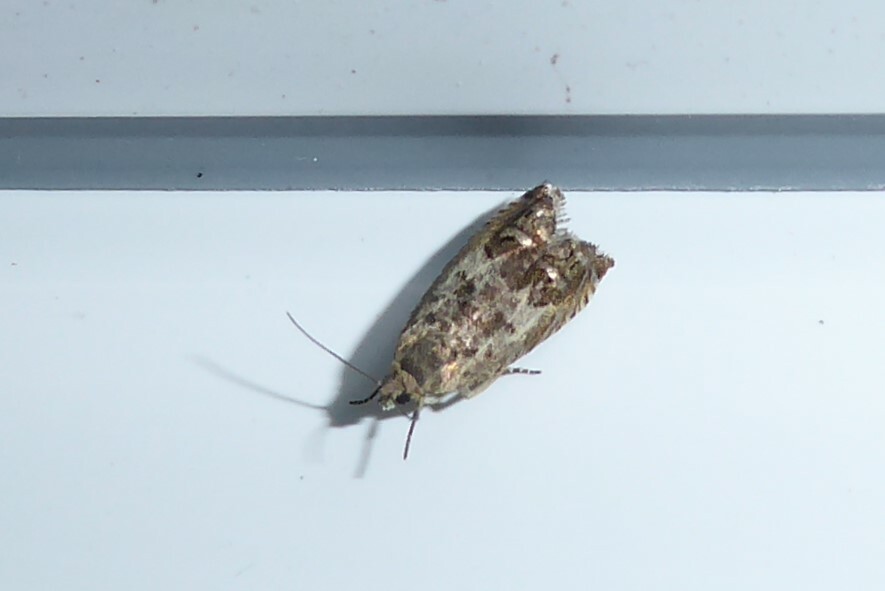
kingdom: Animalia
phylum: Arthropoda
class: Insecta
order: Lepidoptera
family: Tortricidae
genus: Cydia
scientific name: Cydia succedana
